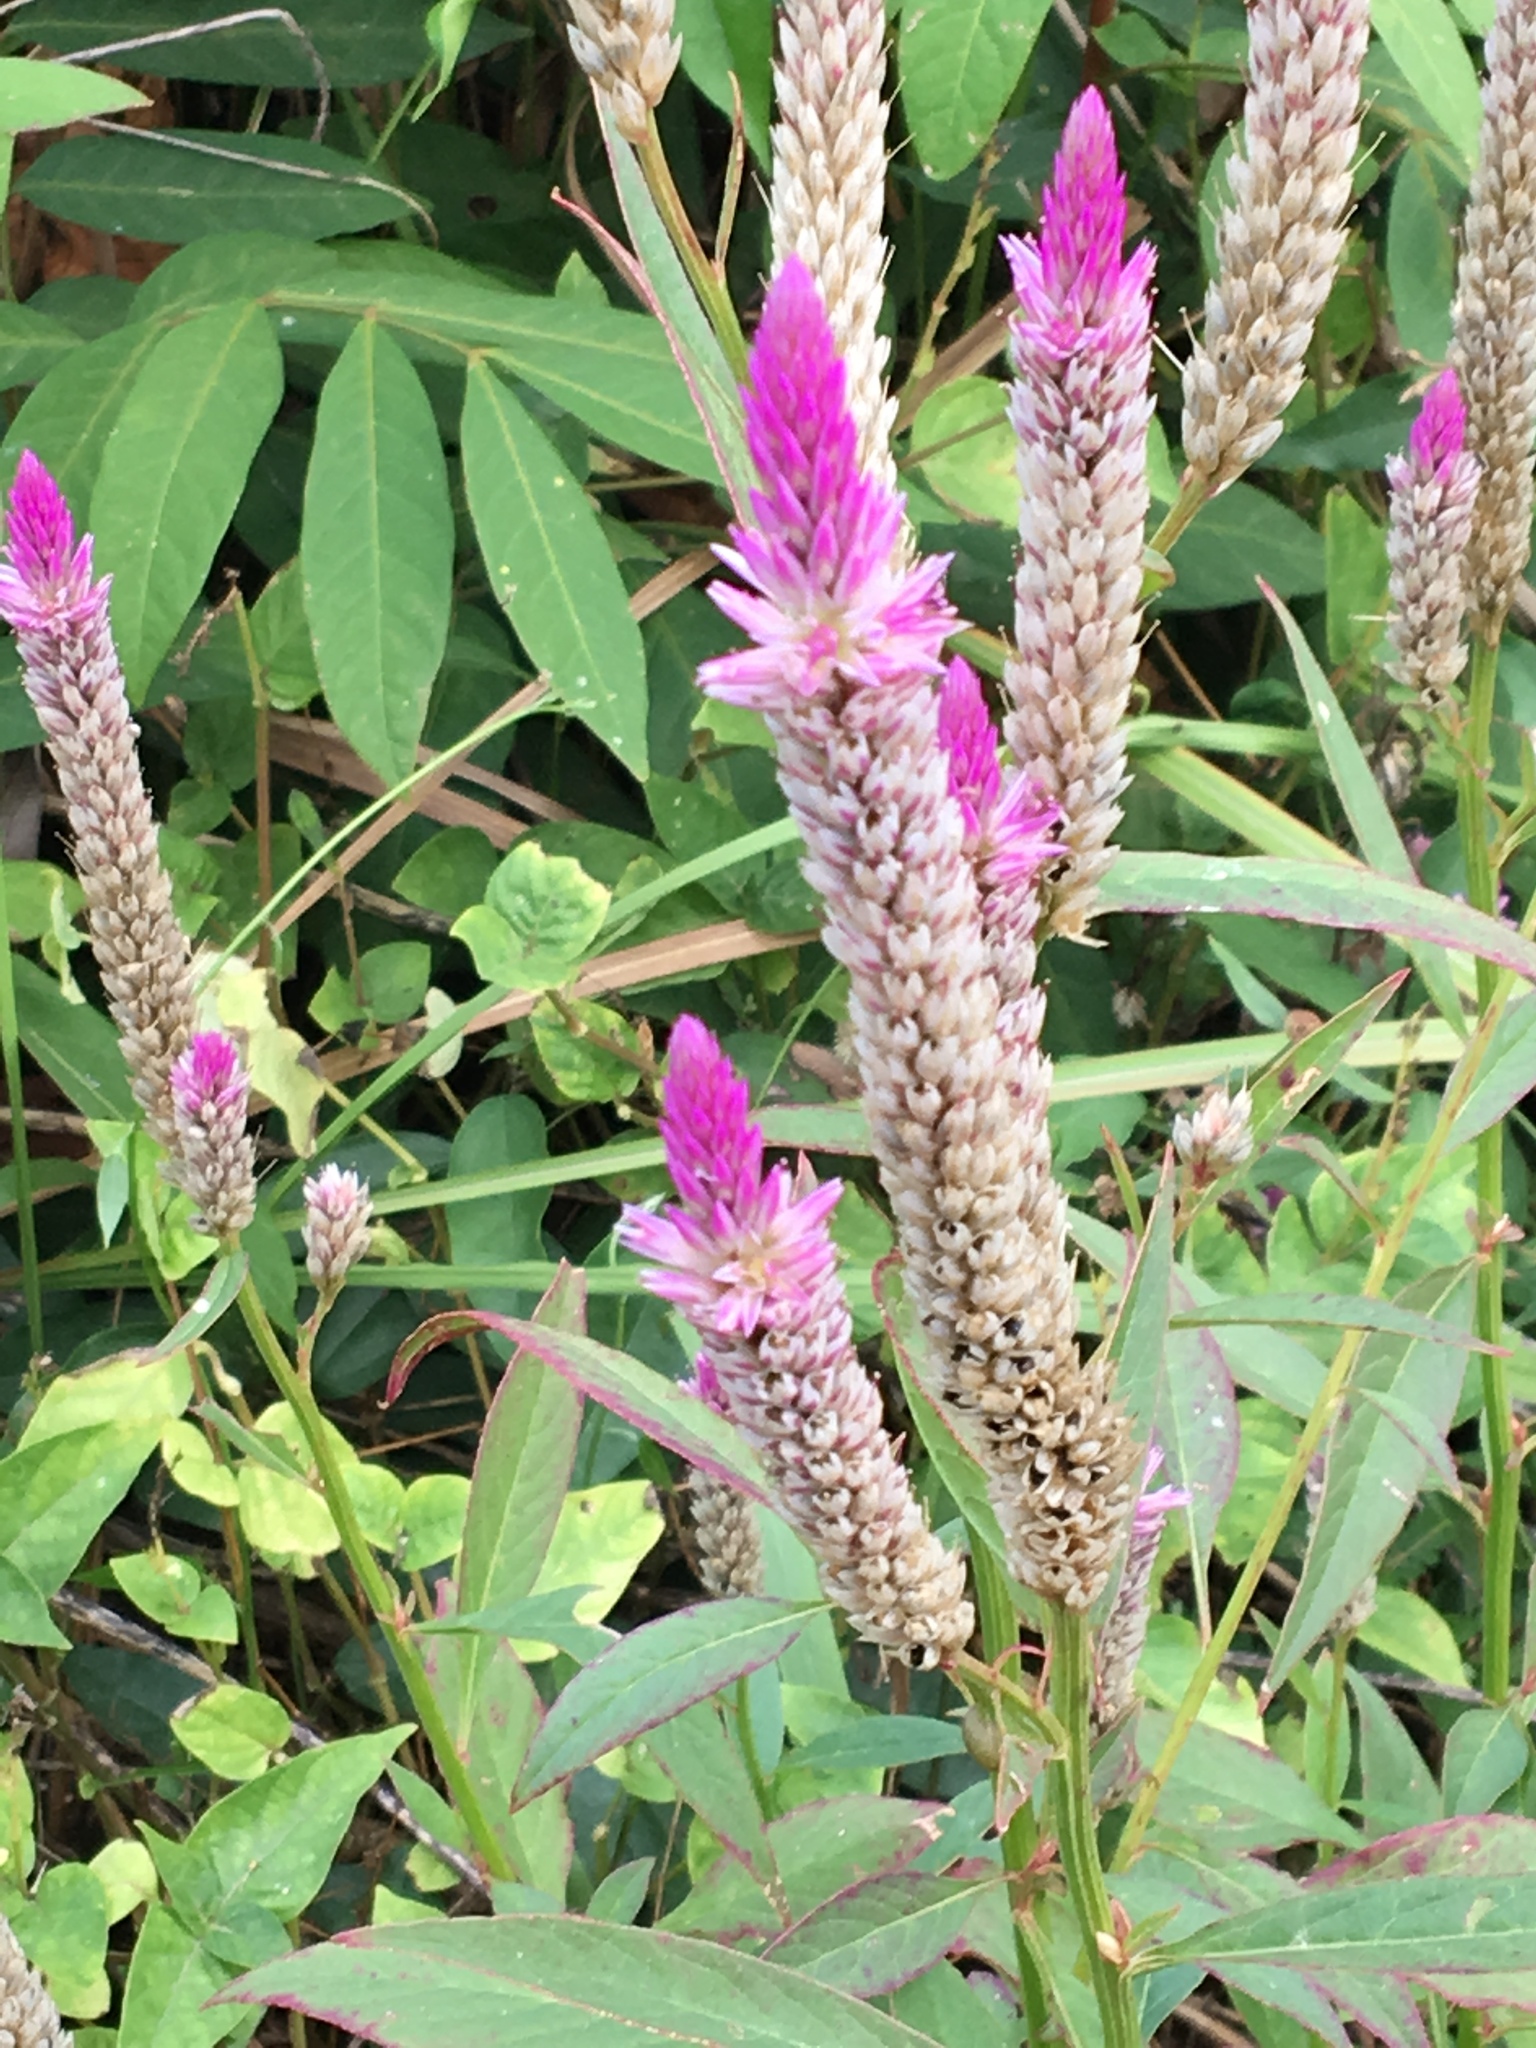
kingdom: Plantae
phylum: Tracheophyta
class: Magnoliopsida
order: Caryophyllales
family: Amaranthaceae
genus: Celosia
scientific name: Celosia argentea
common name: Feather cockscomb
